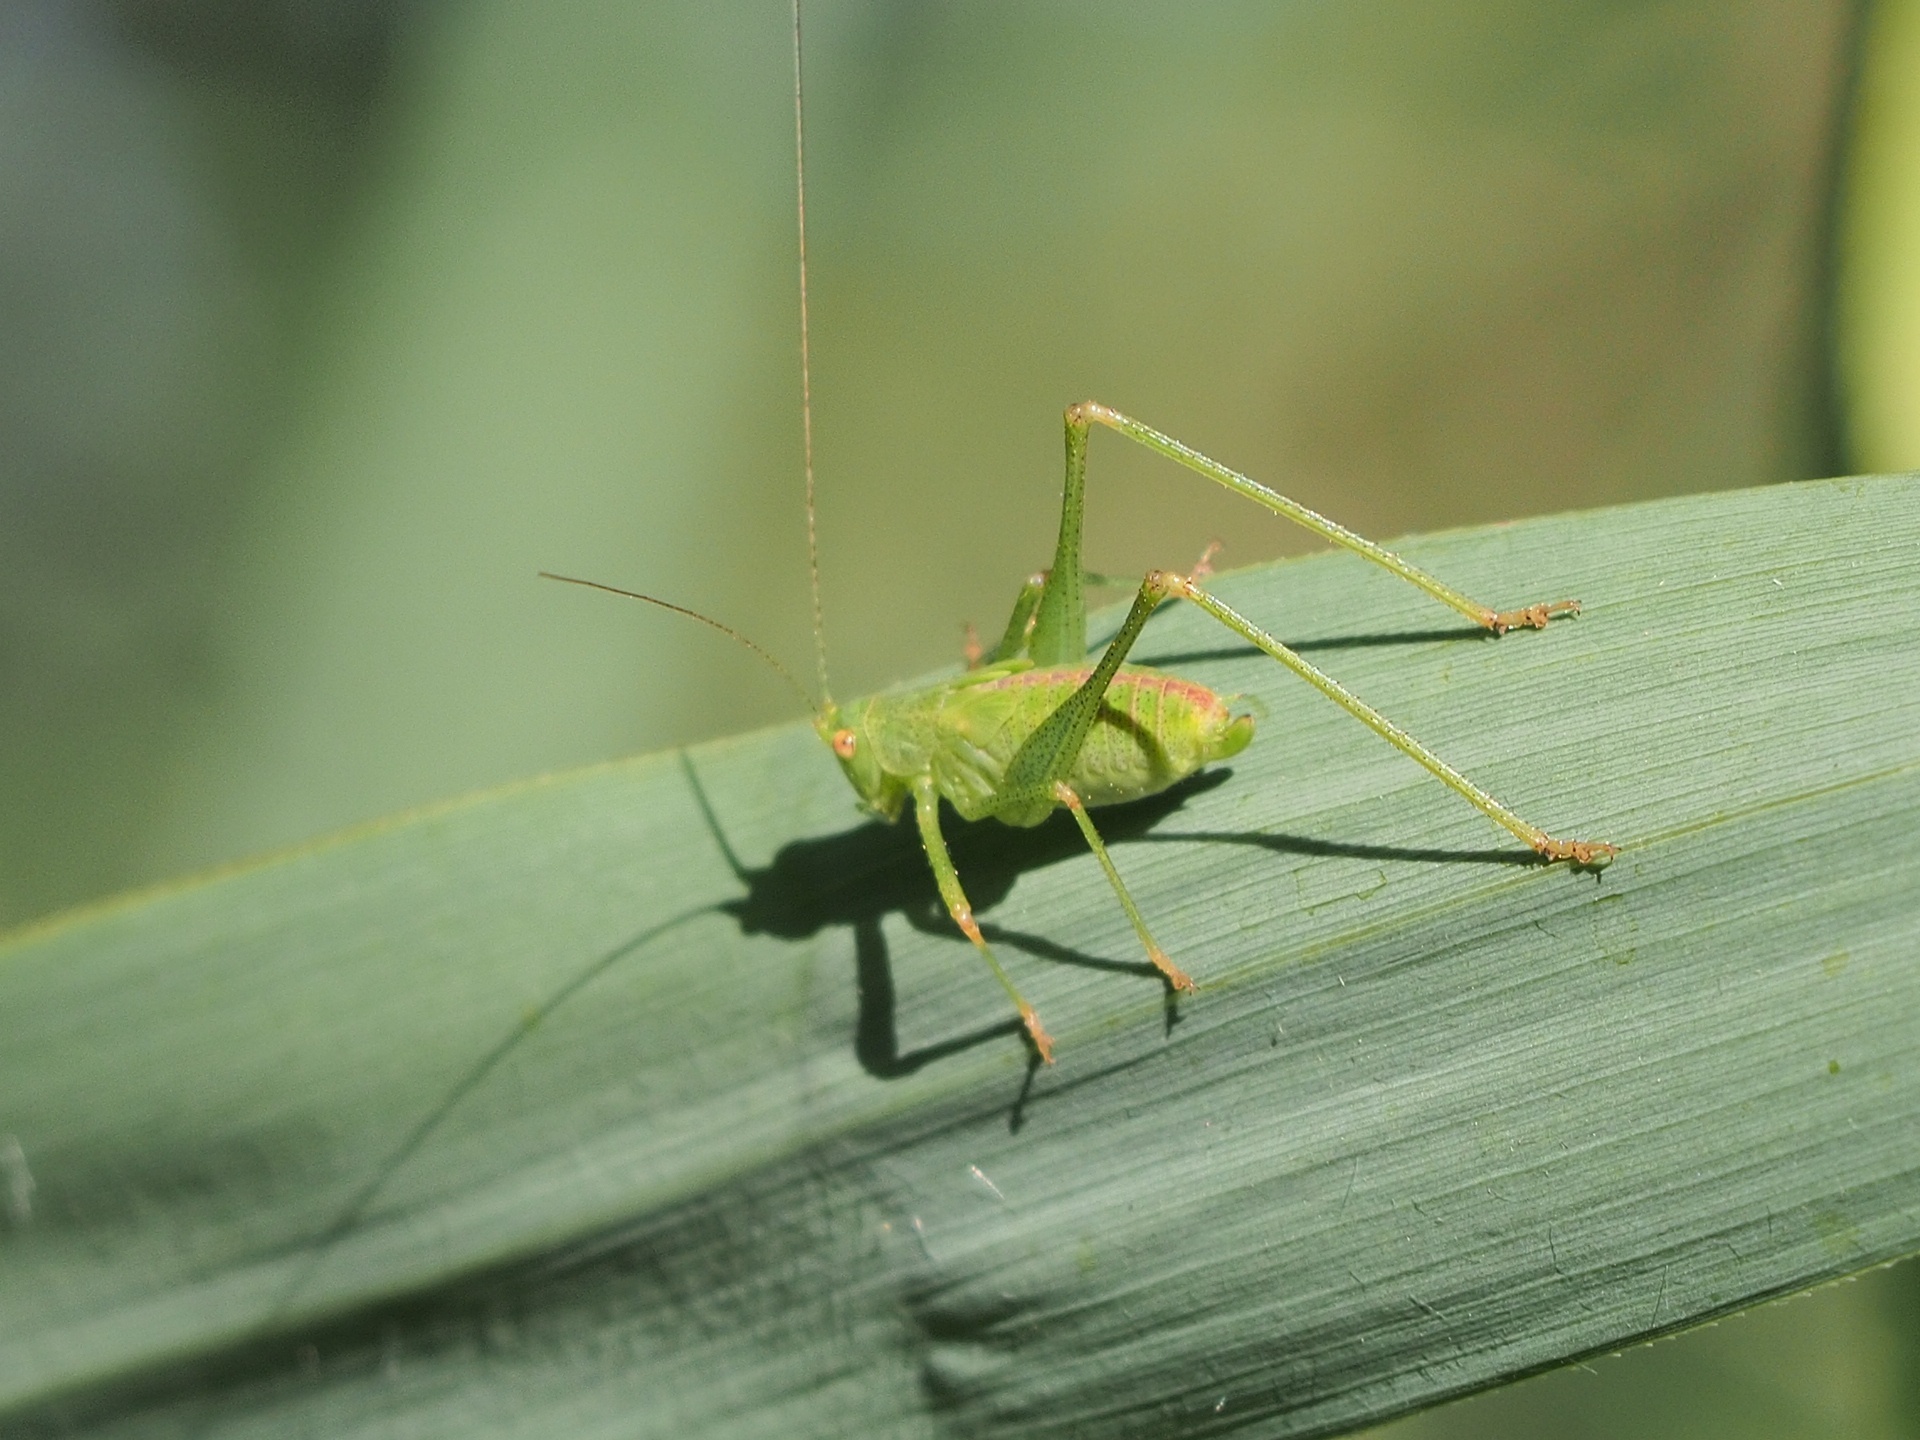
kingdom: Animalia
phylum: Arthropoda
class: Insecta
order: Orthoptera
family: Tettigoniidae
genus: Phaneroptera
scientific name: Phaneroptera nana
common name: Southern sickle bush-cricket
